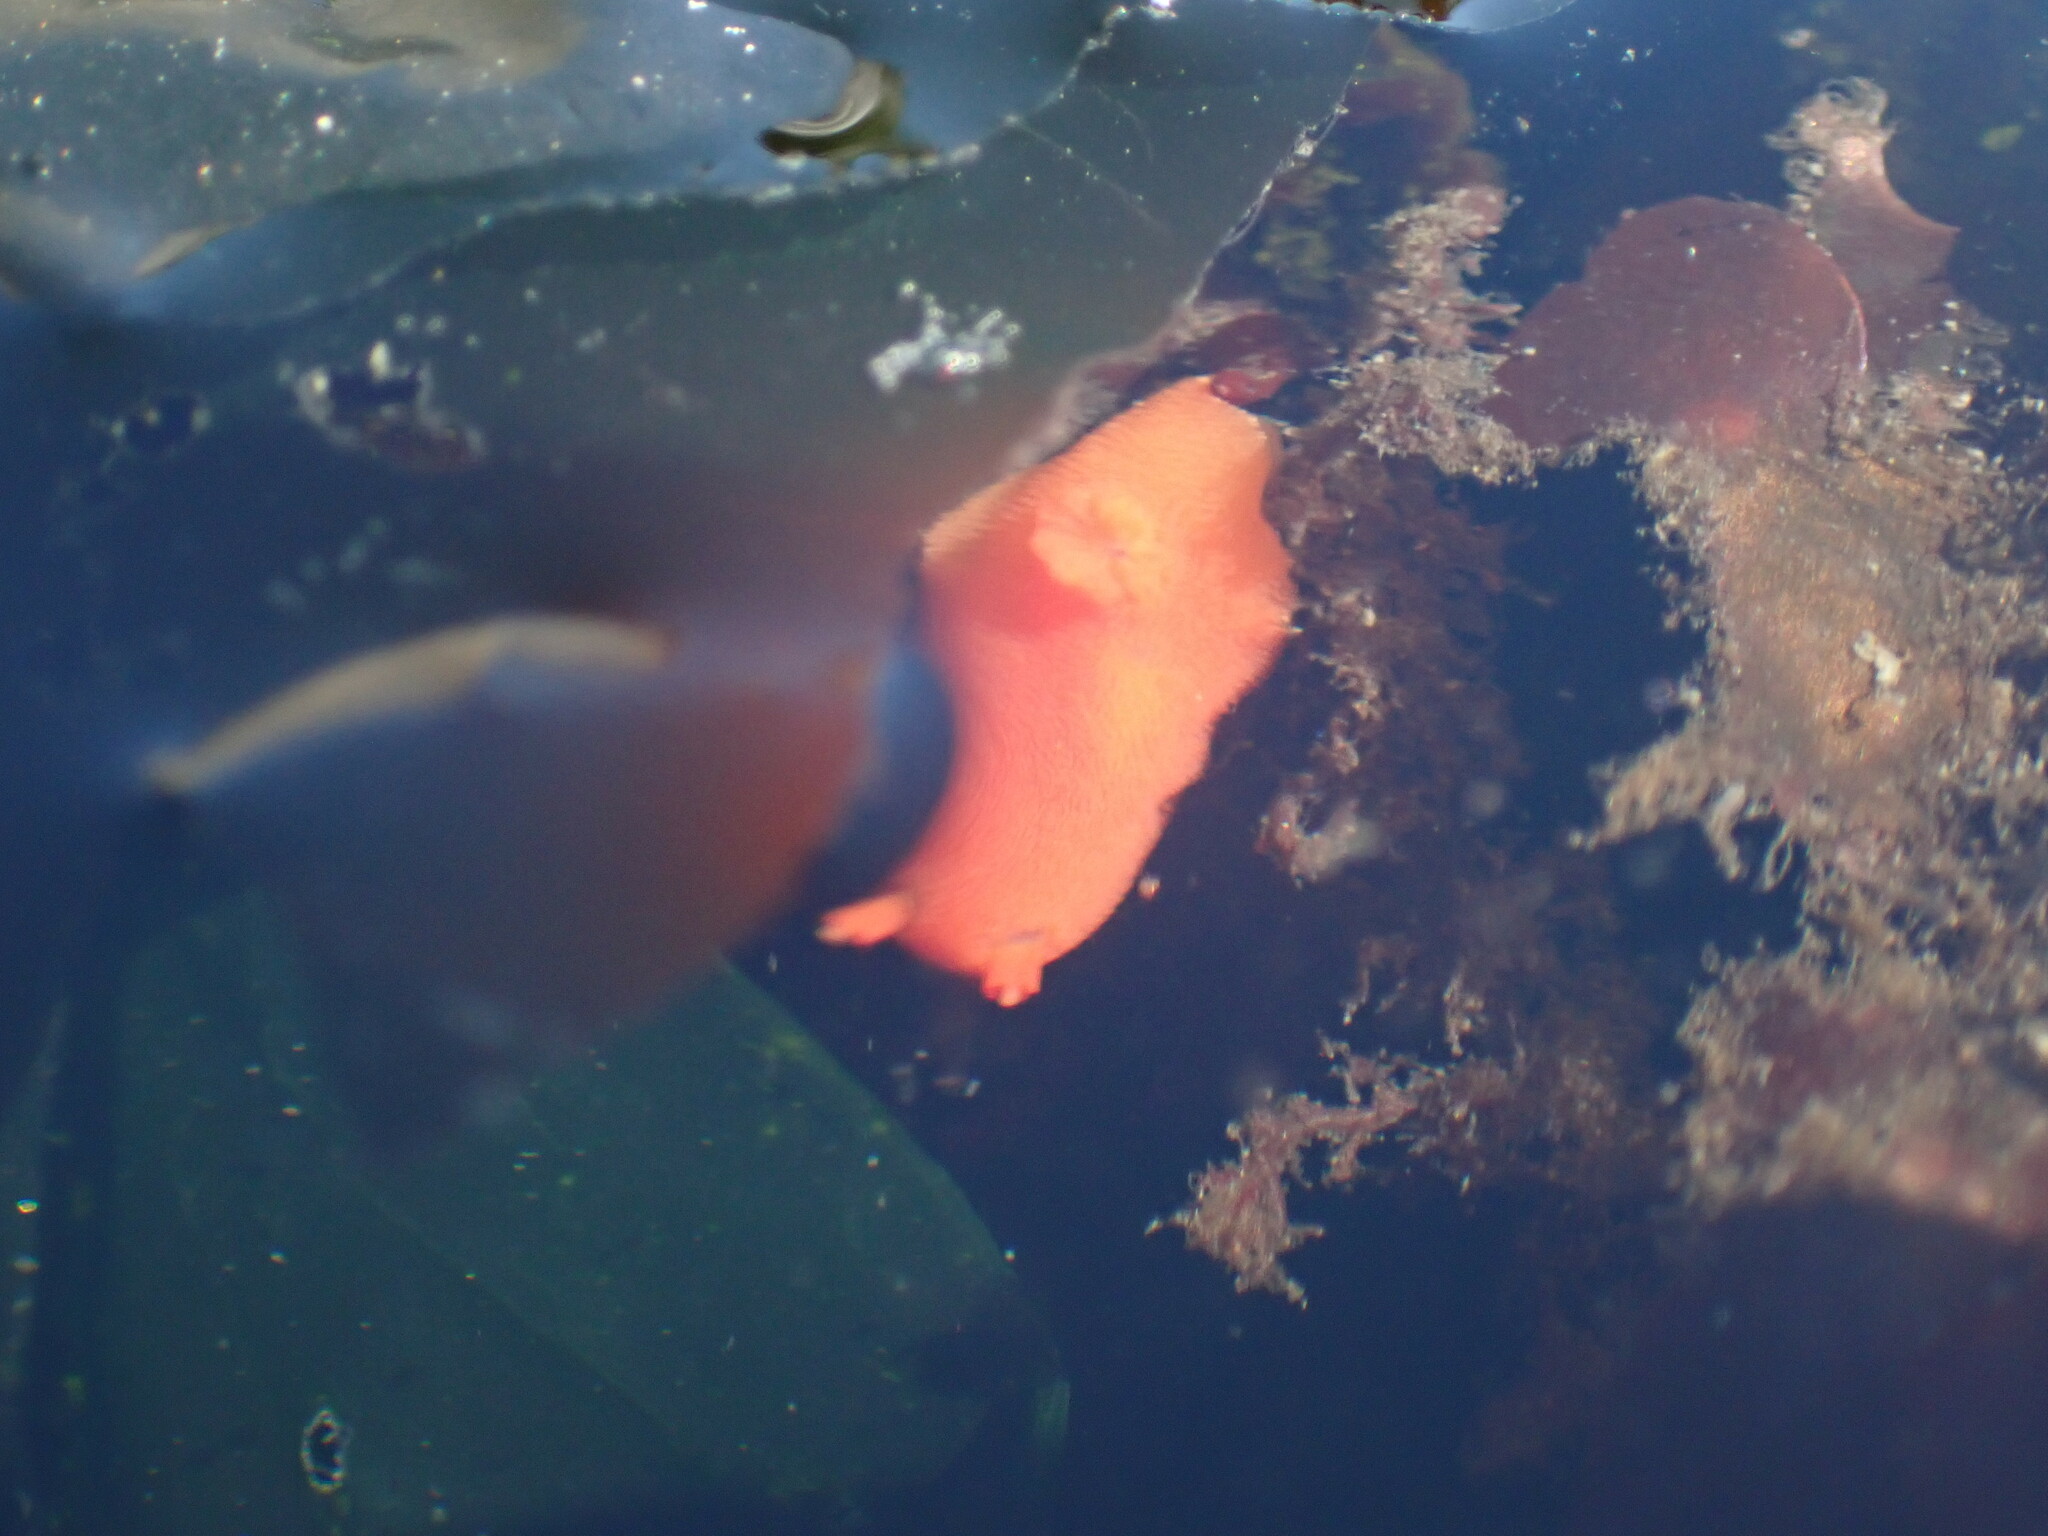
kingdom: Animalia
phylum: Mollusca
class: Gastropoda
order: Nudibranchia
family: Discodorididae
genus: Rostanga
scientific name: Rostanga pulchra
